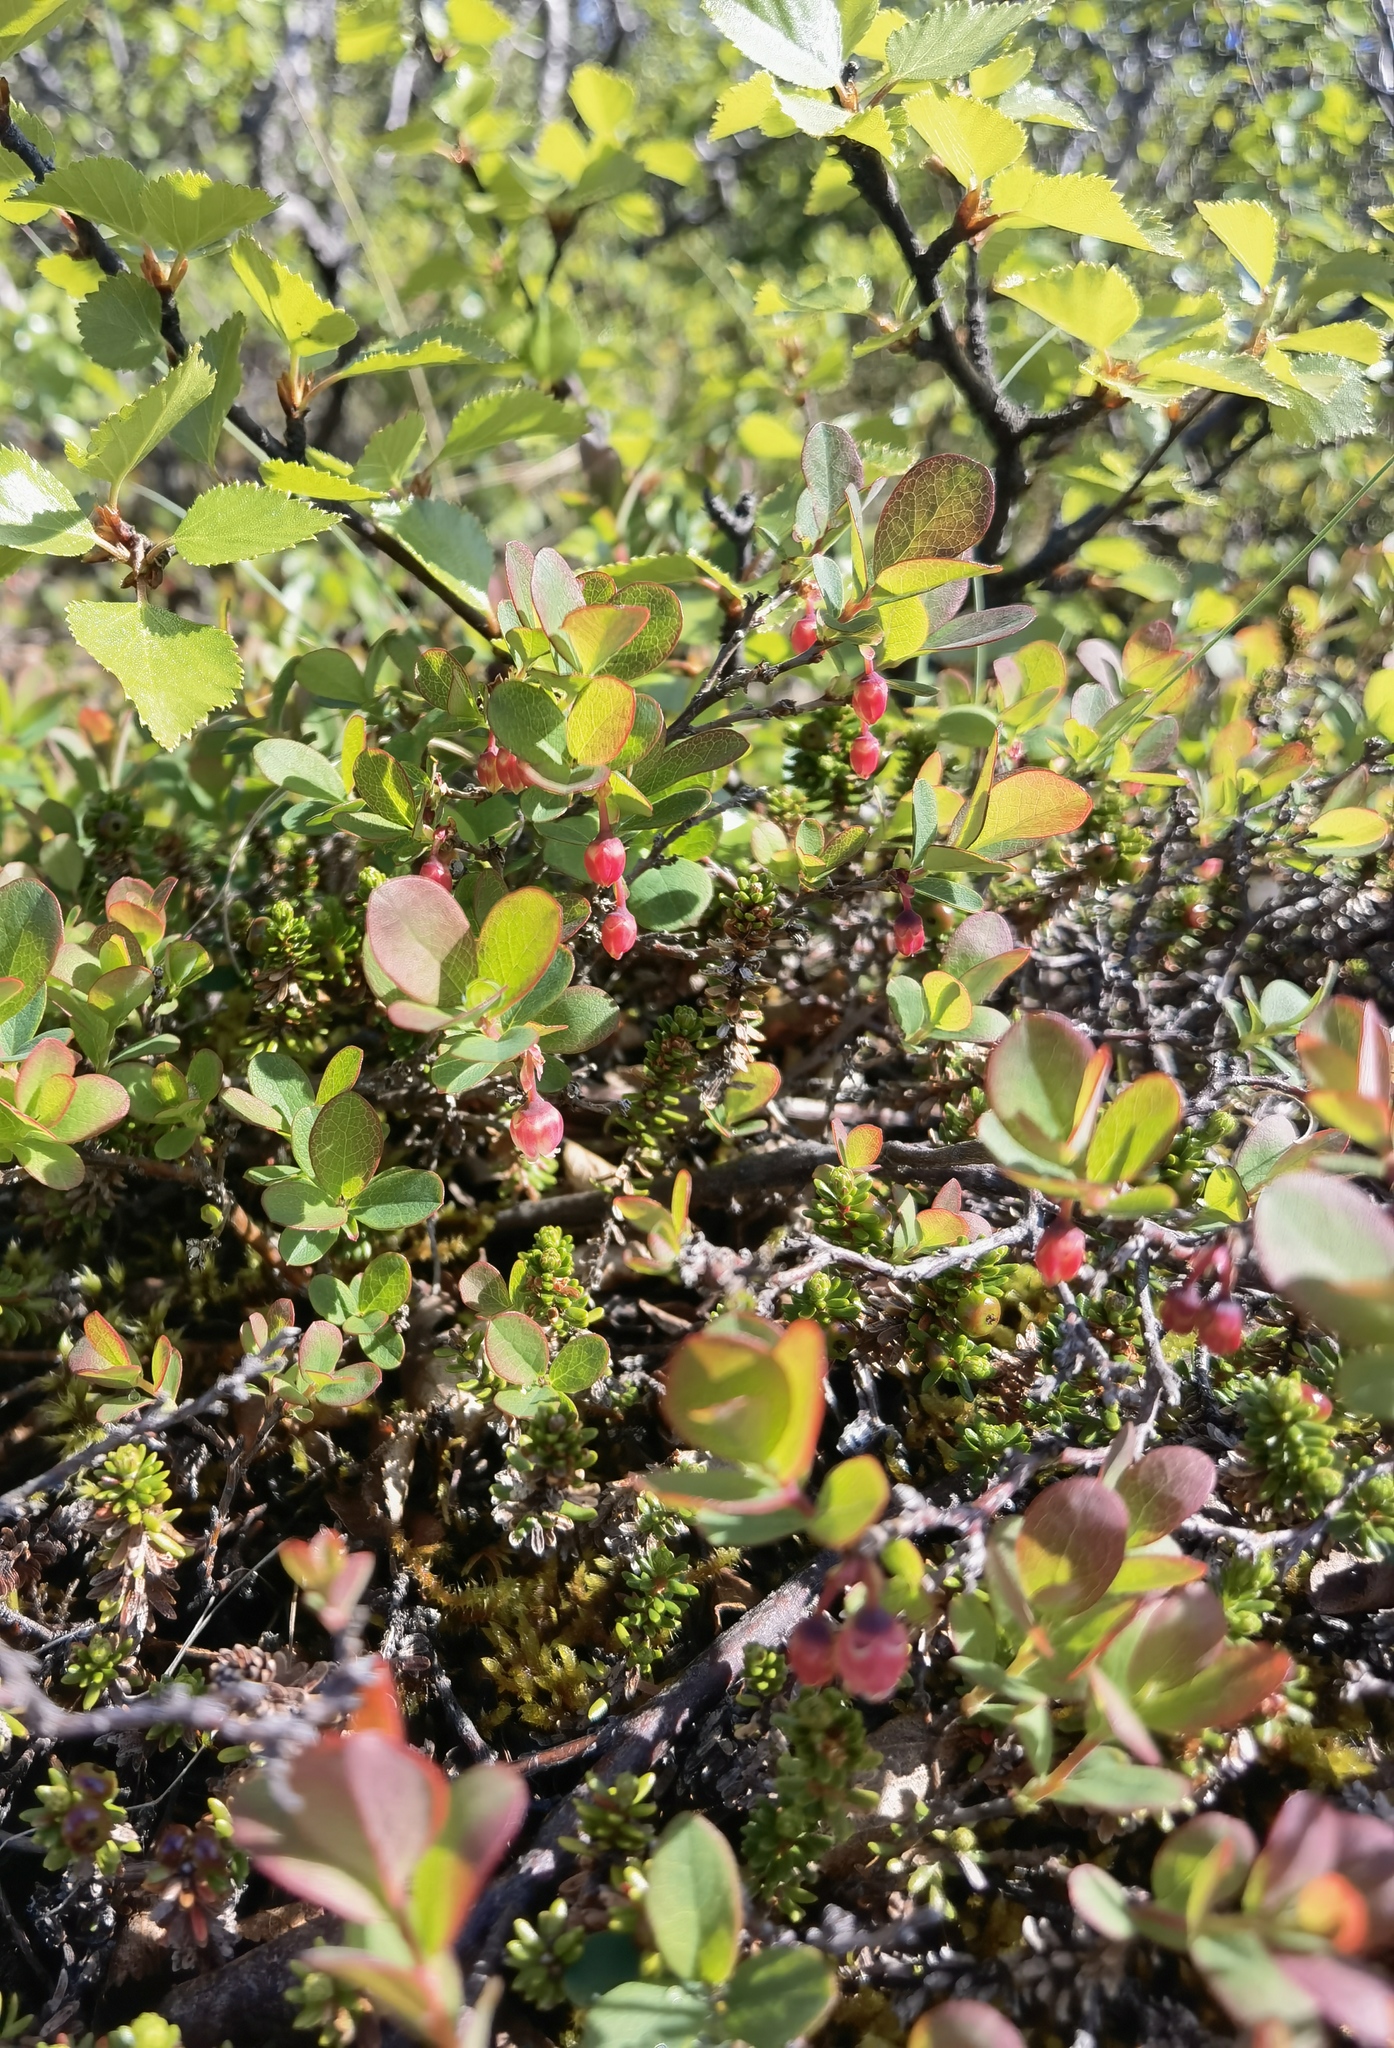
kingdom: Plantae
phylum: Tracheophyta
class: Magnoliopsida
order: Ericales
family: Ericaceae
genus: Vaccinium
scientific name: Vaccinium uliginosum
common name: Bog bilberry
